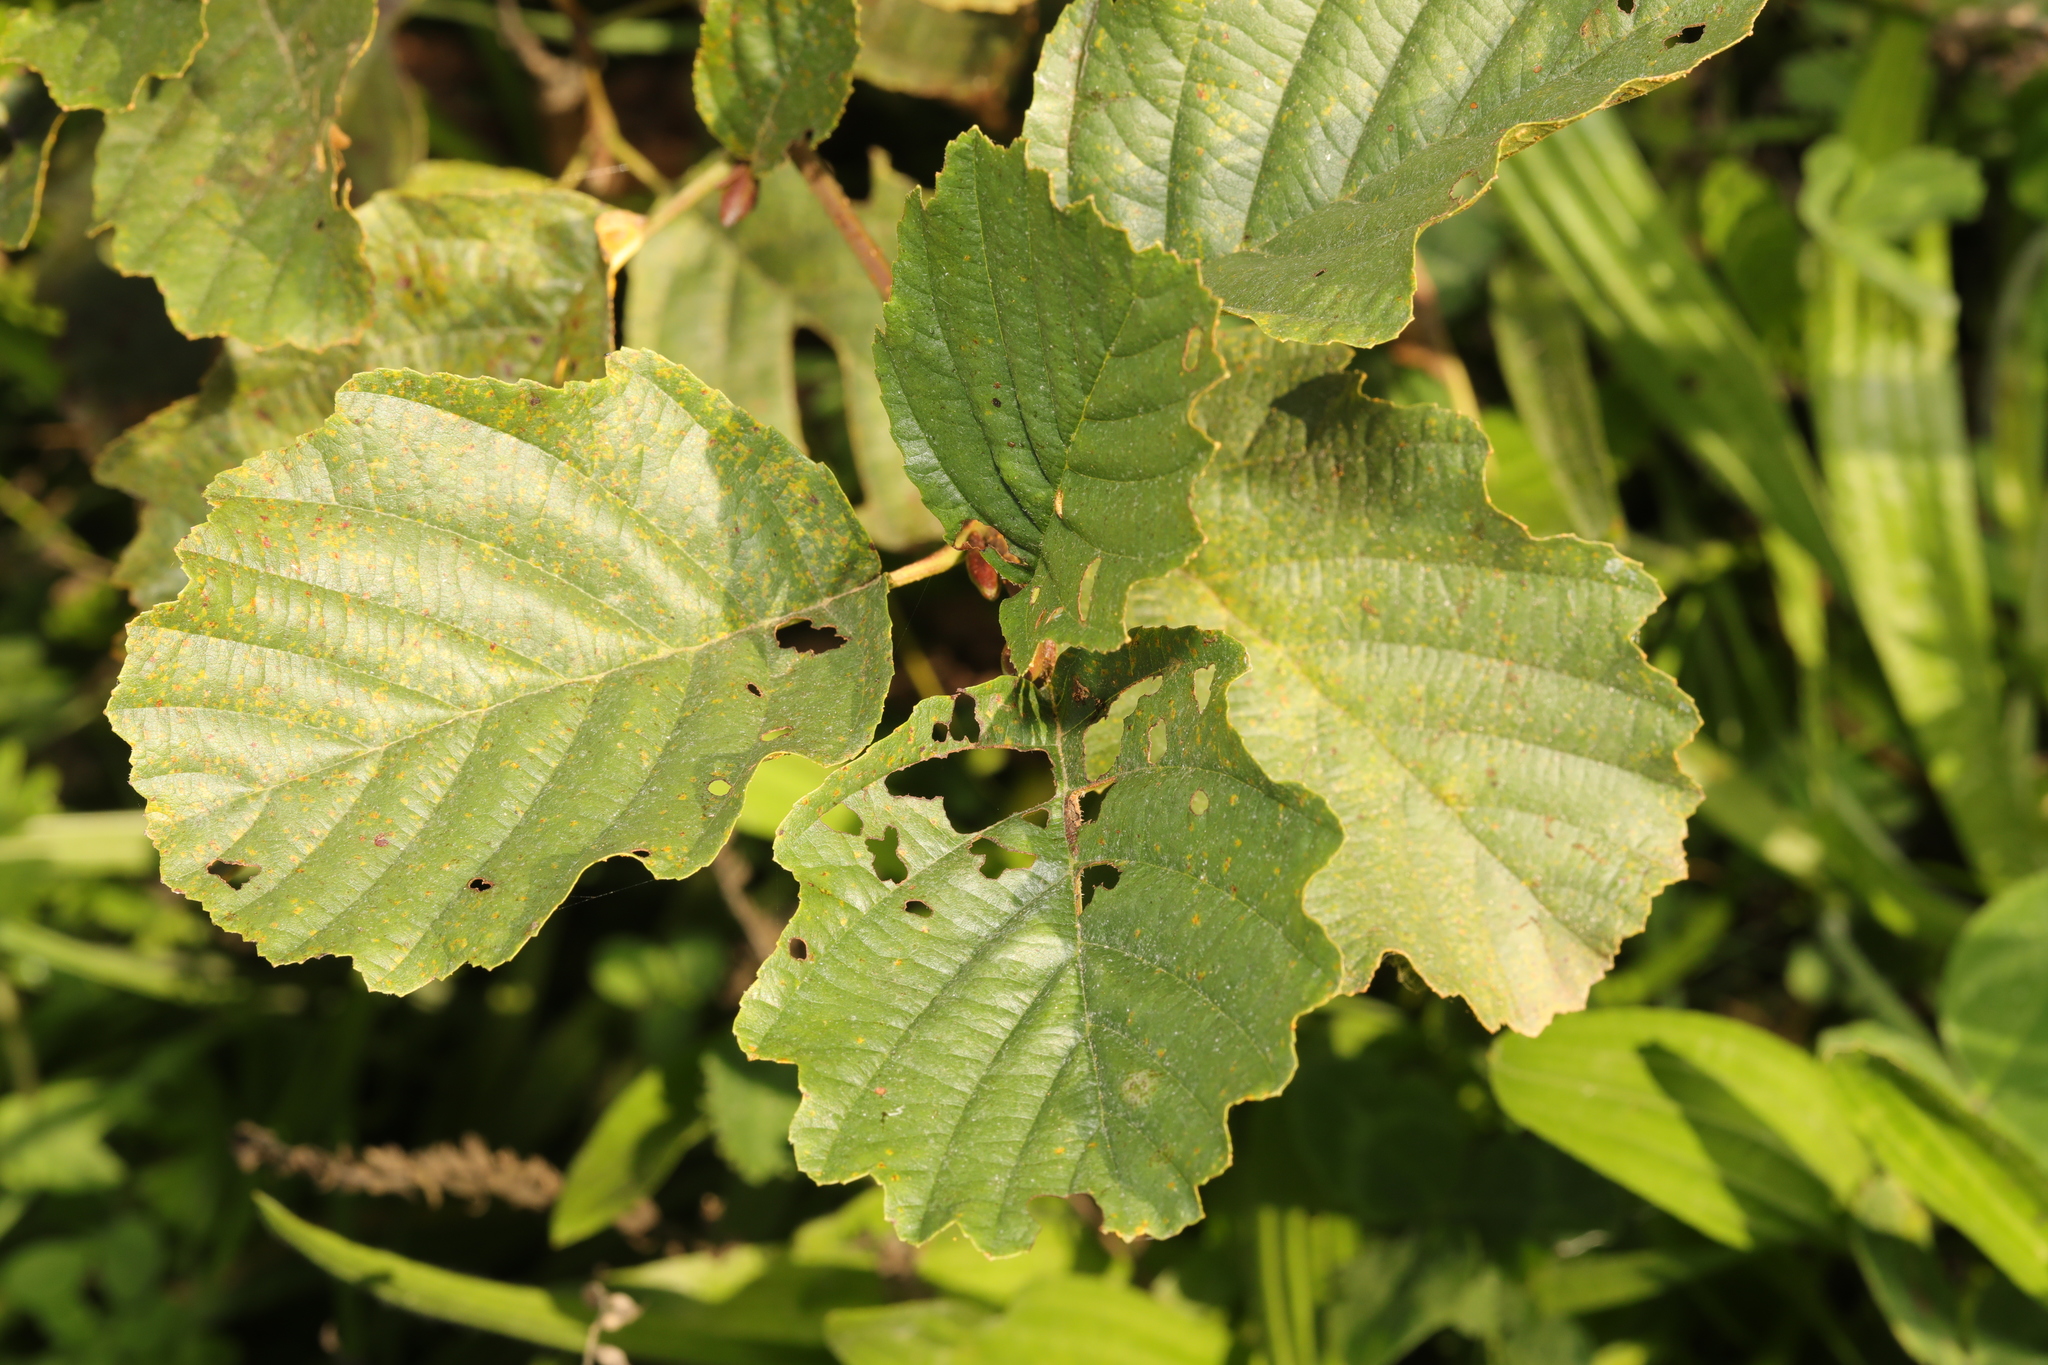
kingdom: Plantae
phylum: Tracheophyta
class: Magnoliopsida
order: Fagales
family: Betulaceae
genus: Alnus
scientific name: Alnus glutinosa
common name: Black alder
